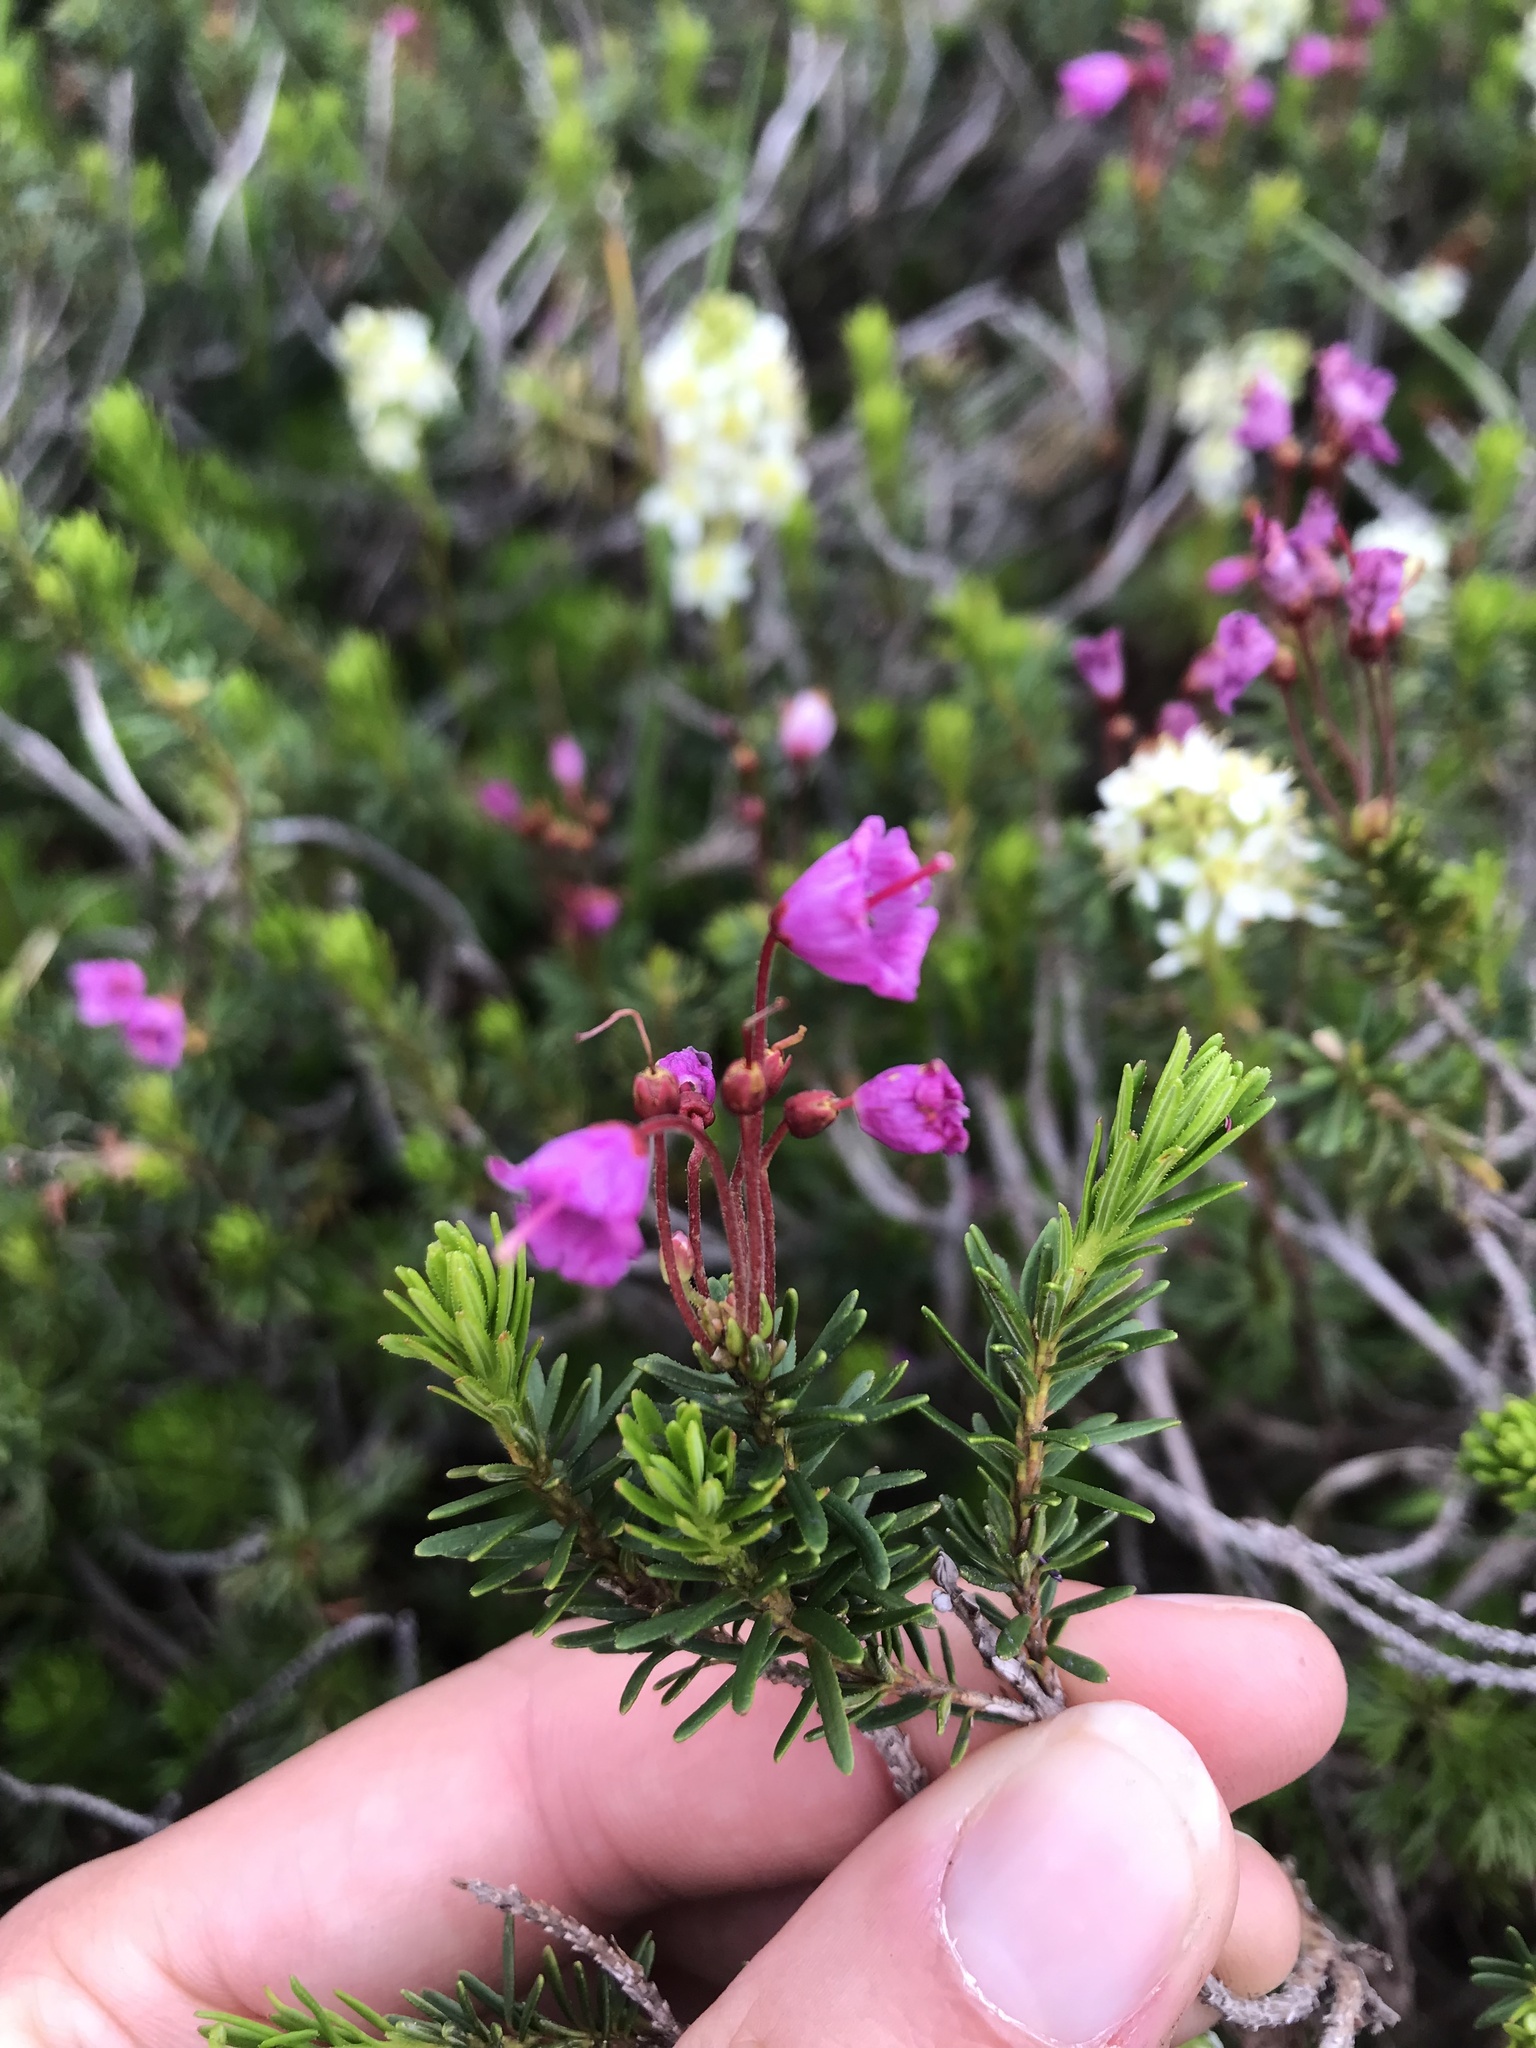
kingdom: Plantae
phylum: Tracheophyta
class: Magnoliopsida
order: Ericales
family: Ericaceae
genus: Phyllodoce
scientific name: Phyllodoce empetriformis
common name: Pink mountain heather
